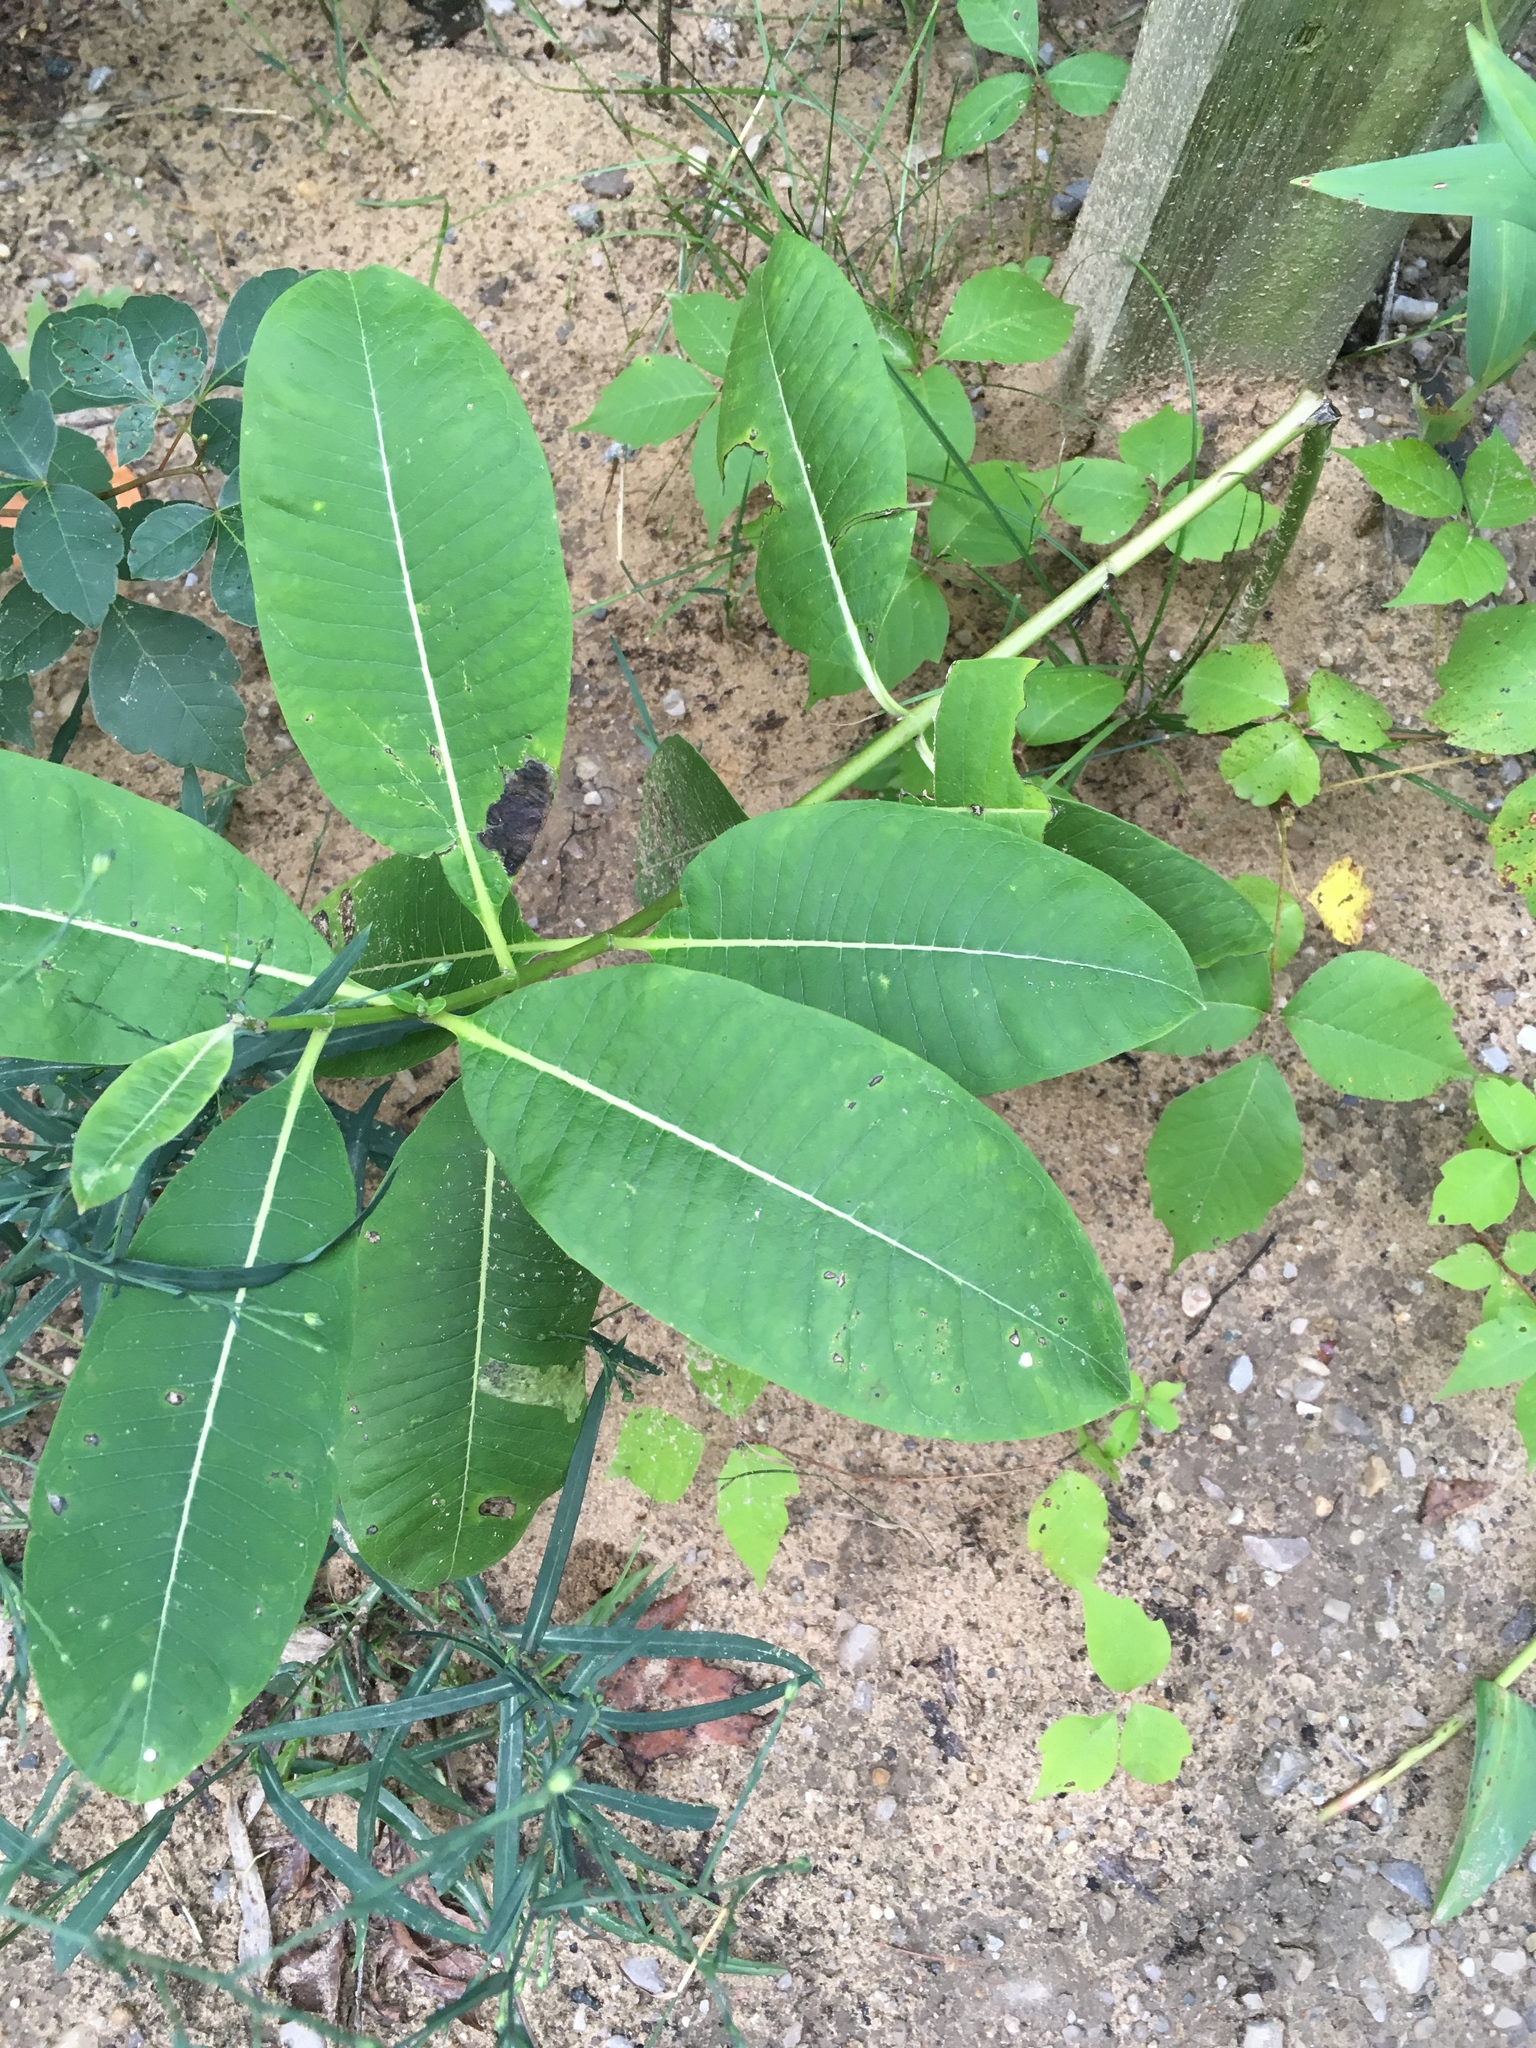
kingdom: Plantae
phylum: Tracheophyta
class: Magnoliopsida
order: Gentianales
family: Apocynaceae
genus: Asclepias
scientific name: Asclepias syriaca
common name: Common milkweed
